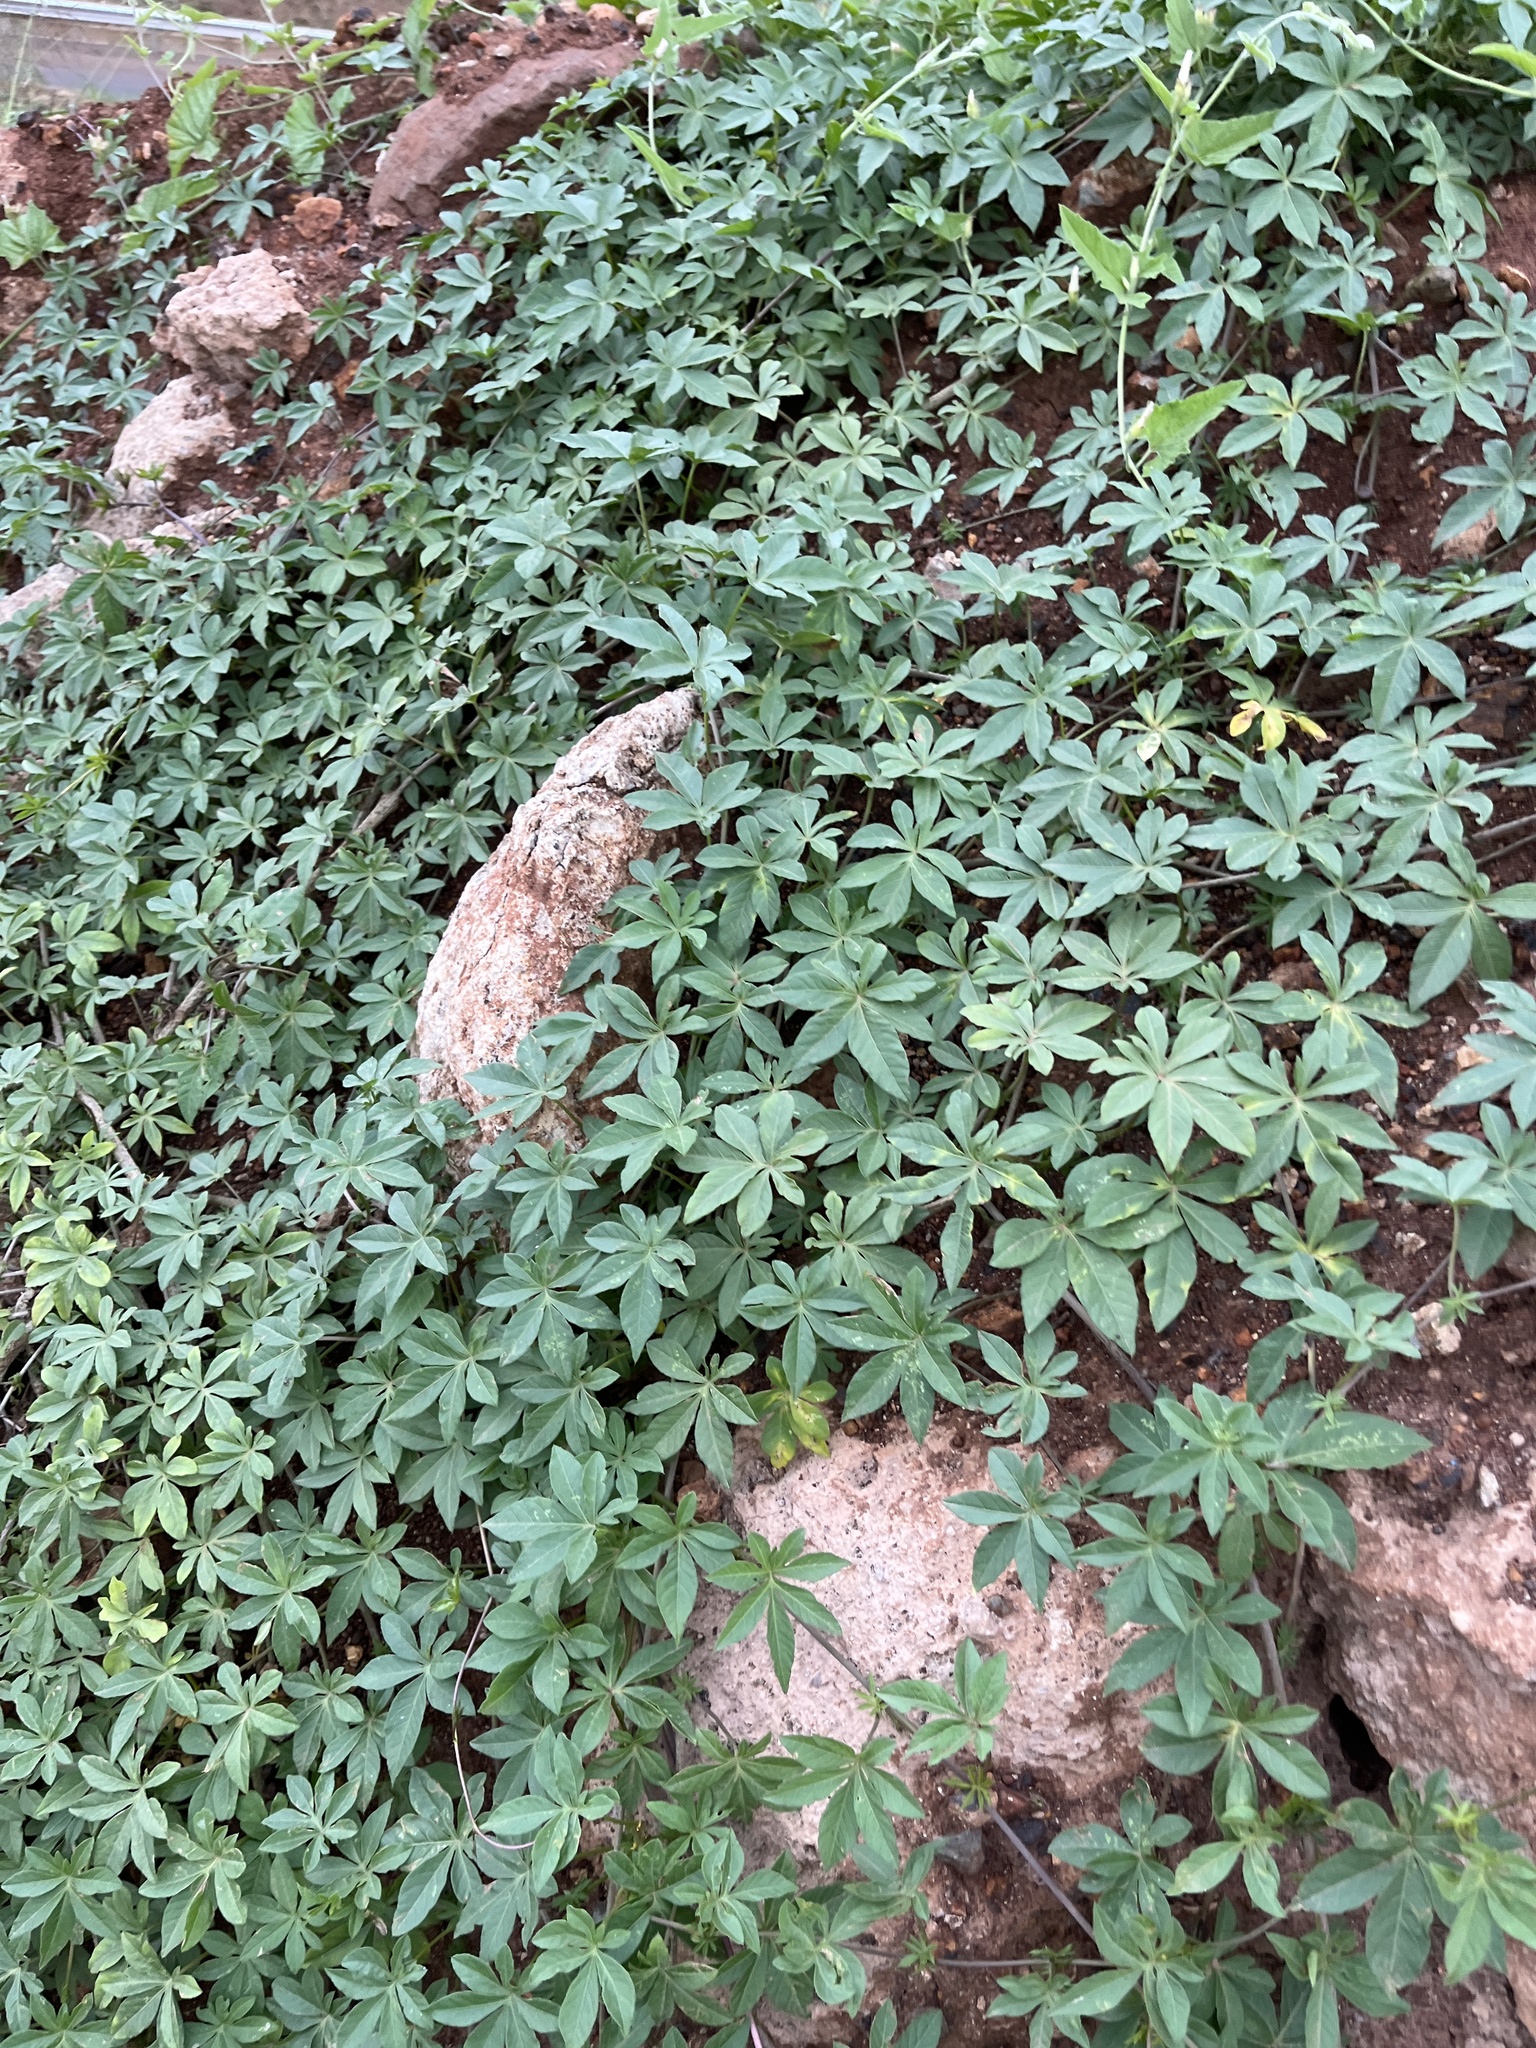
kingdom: Plantae
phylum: Tracheophyta
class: Magnoliopsida
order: Solanales
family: Convolvulaceae
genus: Ipomoea
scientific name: Ipomoea cairica
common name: Mile a minute vine
